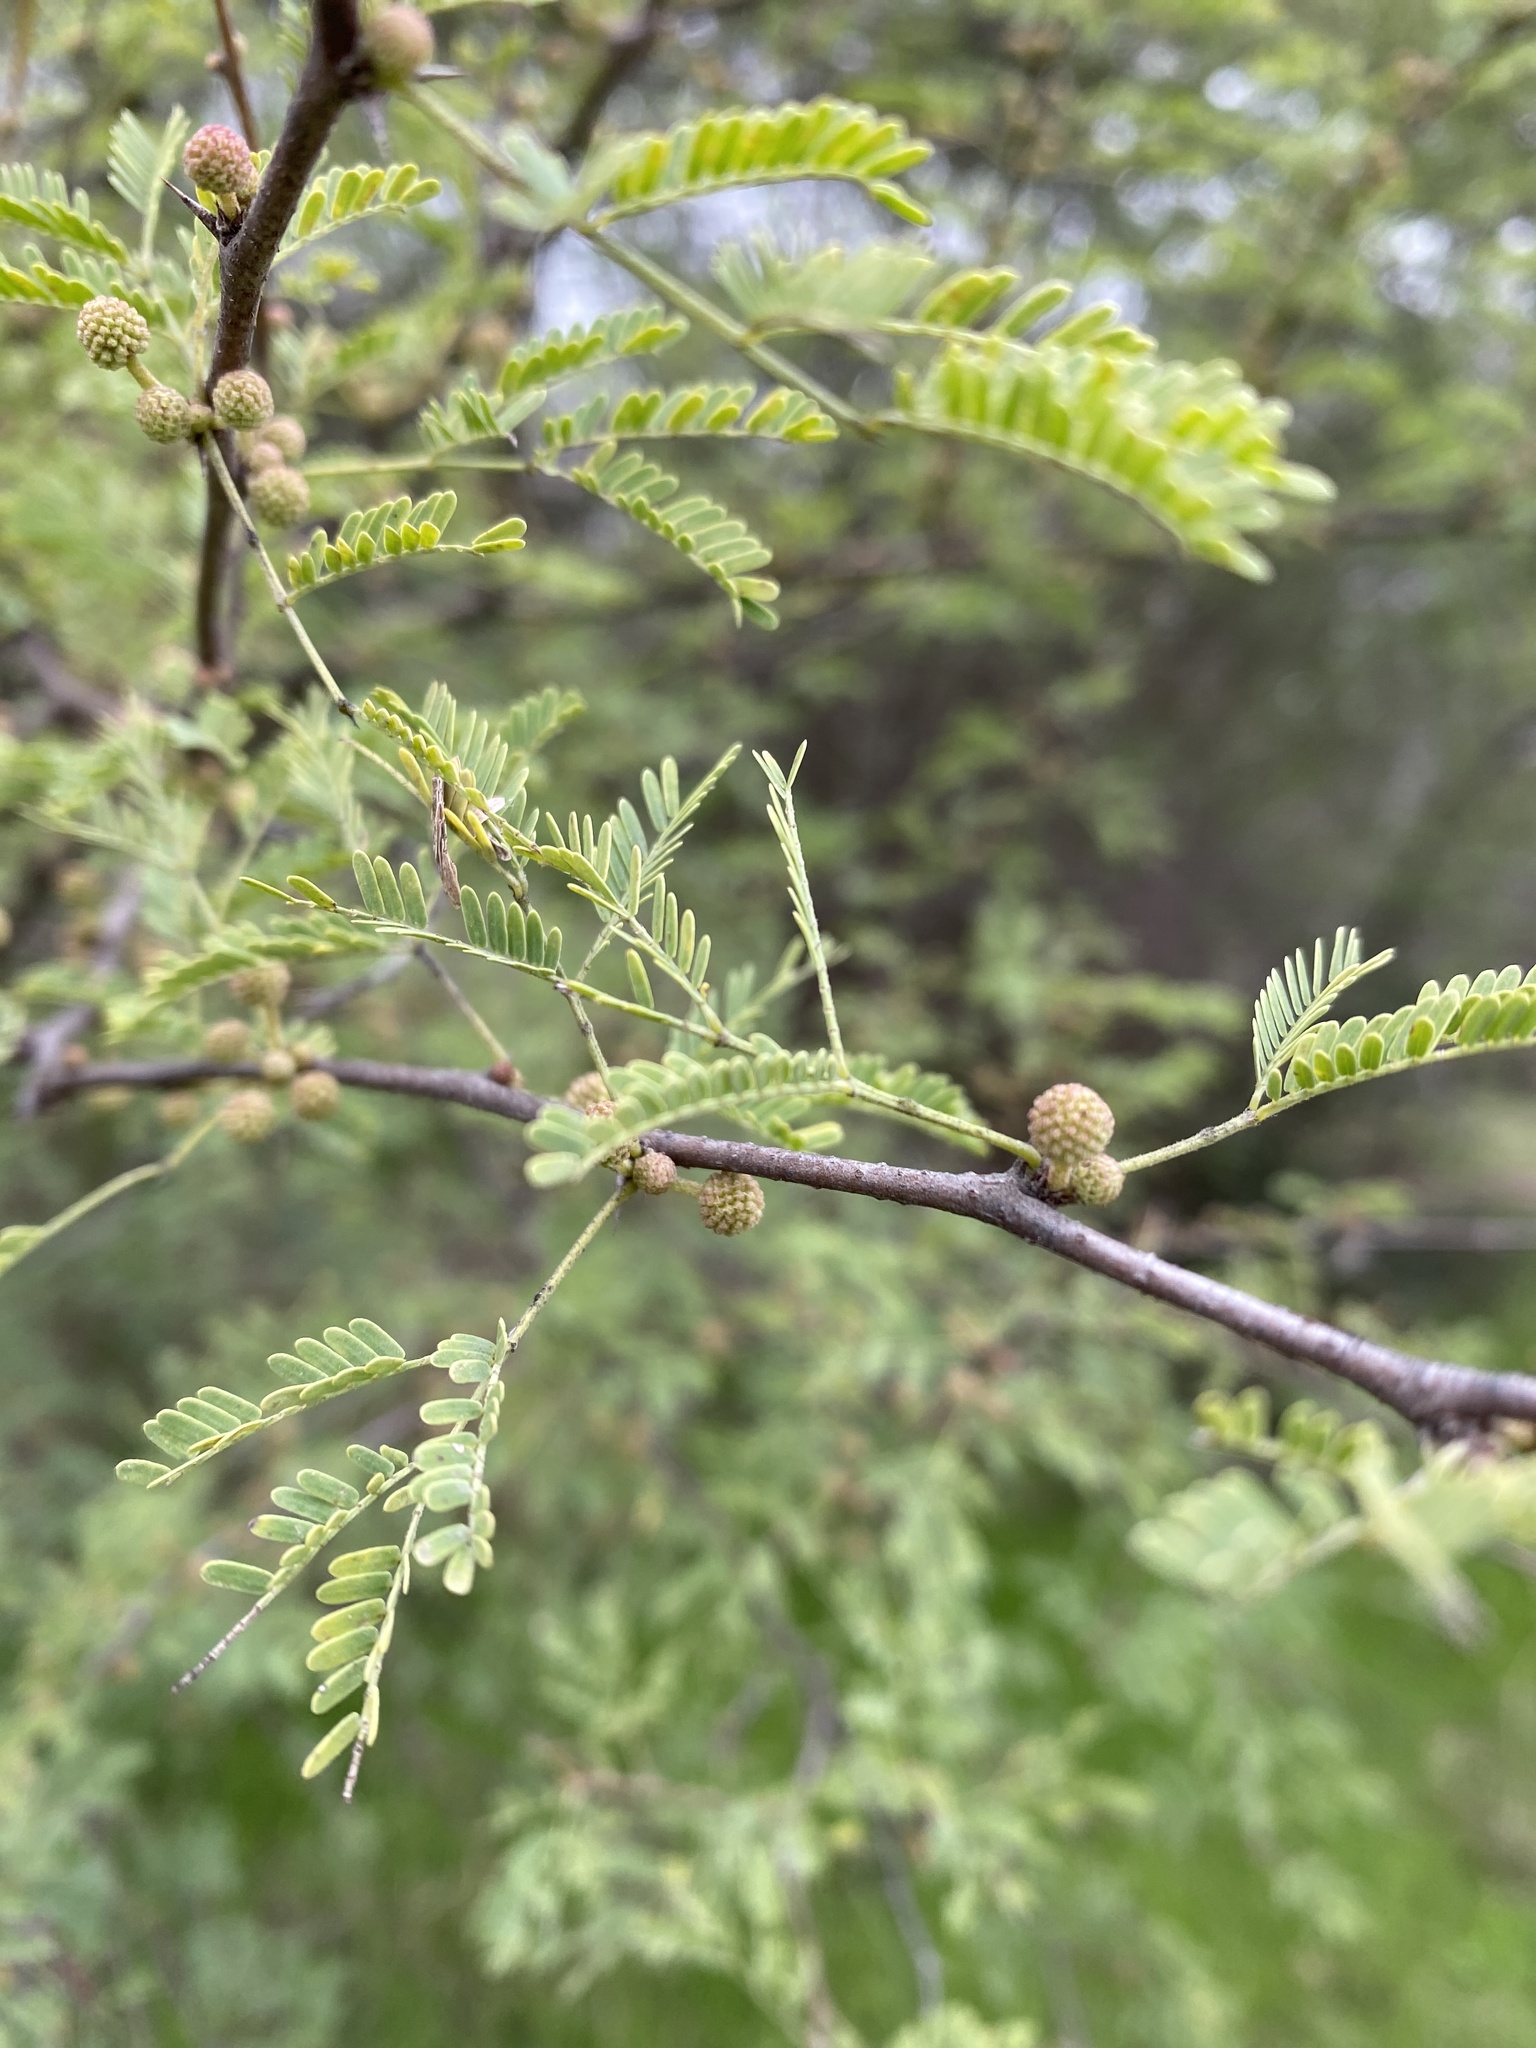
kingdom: Plantae
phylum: Tracheophyta
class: Magnoliopsida
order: Fabales
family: Fabaceae
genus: Vachellia
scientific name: Vachellia farnesiana
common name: Sweet acacia
